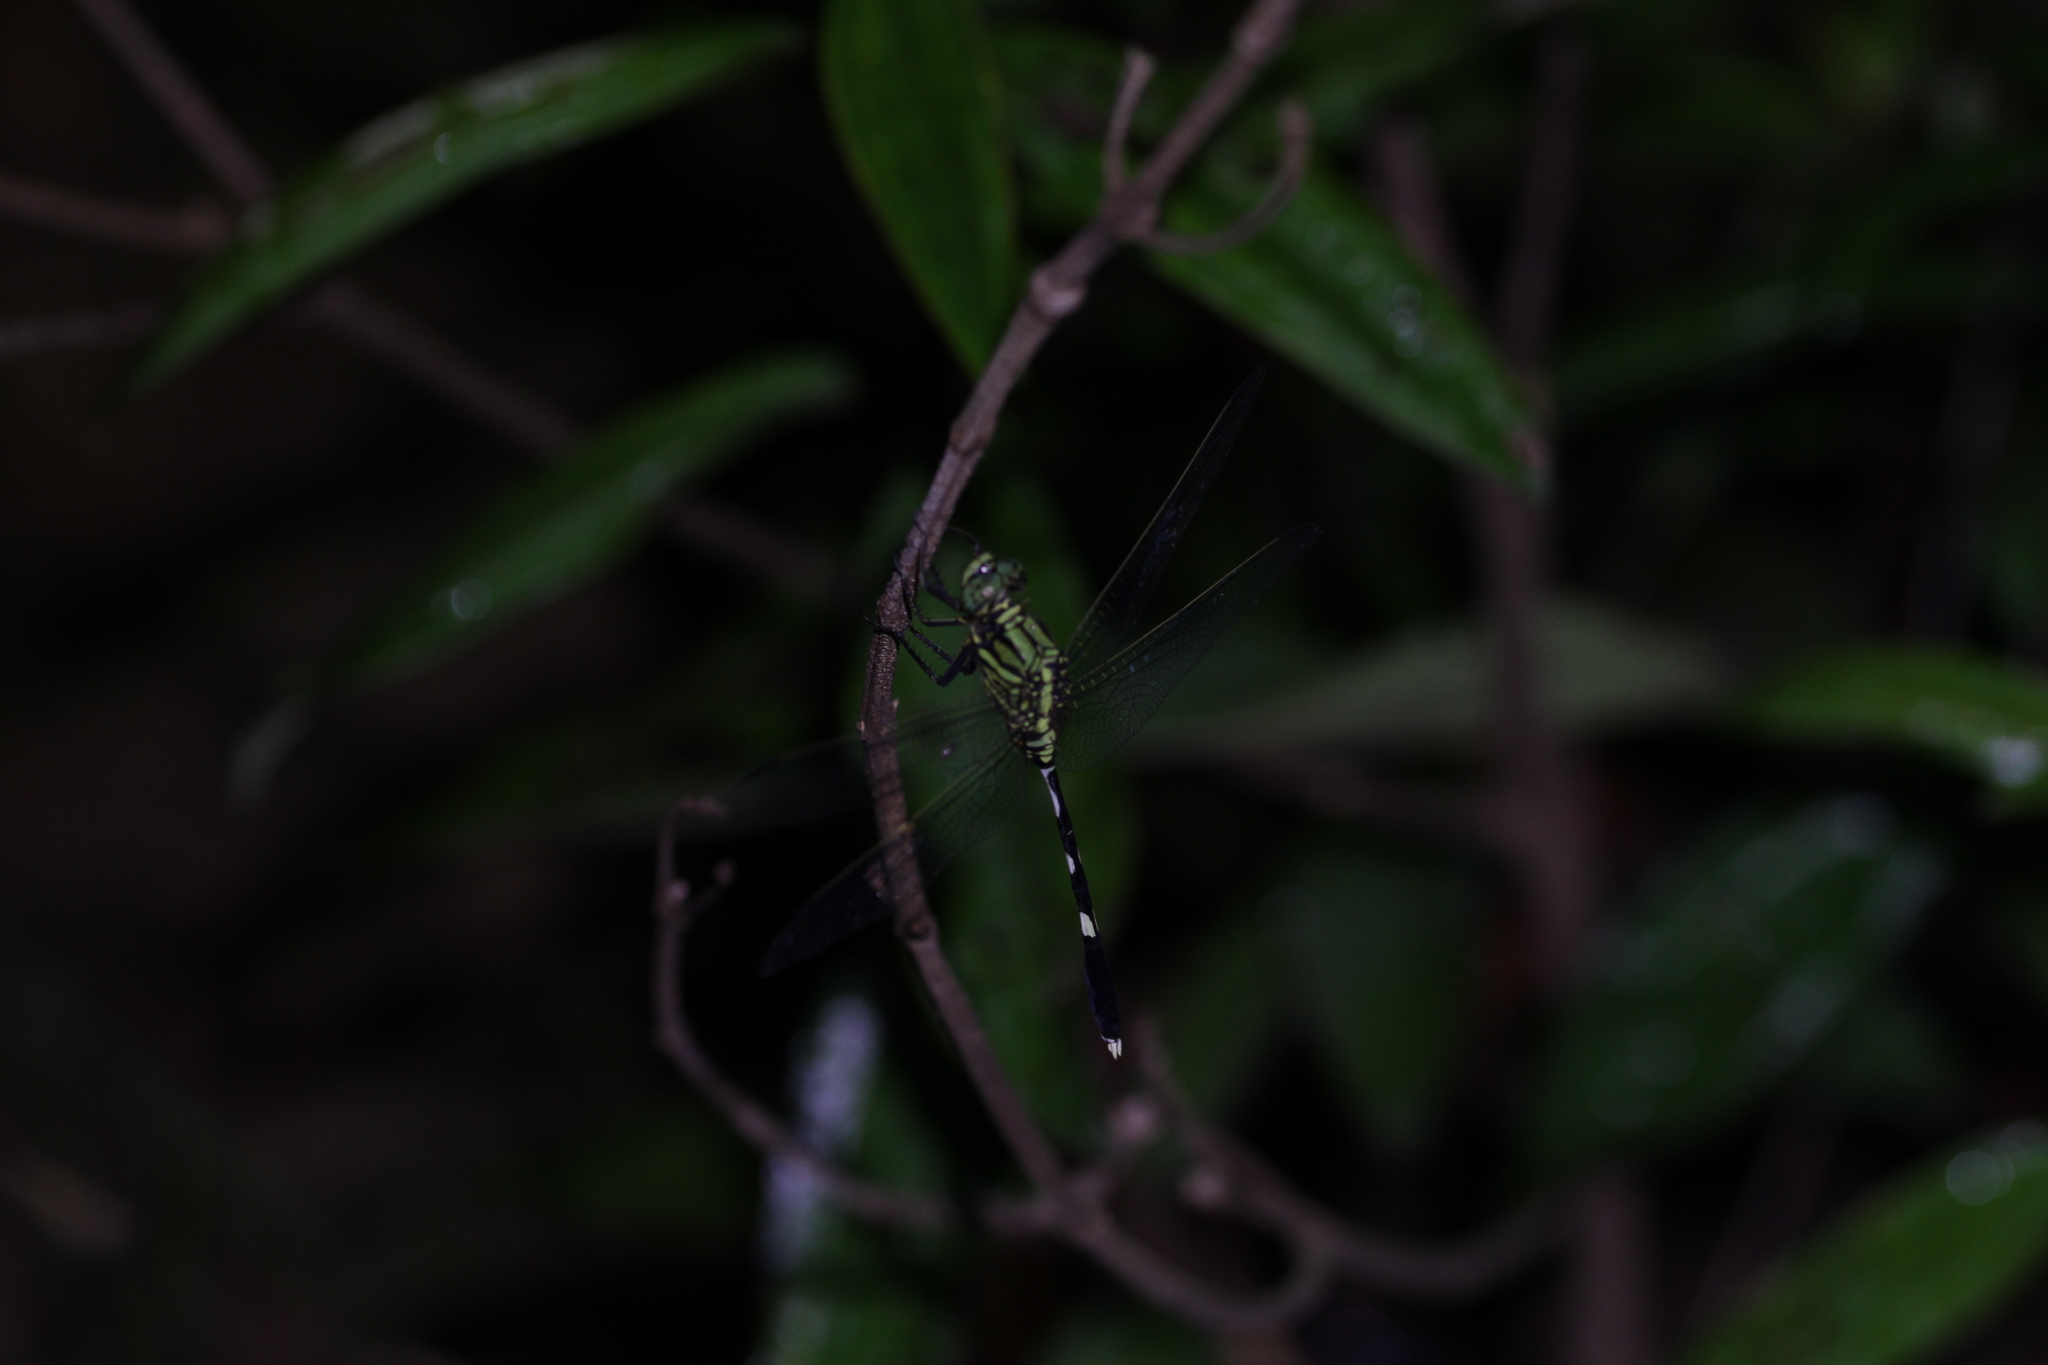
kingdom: Animalia
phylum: Arthropoda
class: Insecta
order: Odonata
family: Libellulidae
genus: Orthetrum
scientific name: Orthetrum sabina
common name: Slender skimmer
